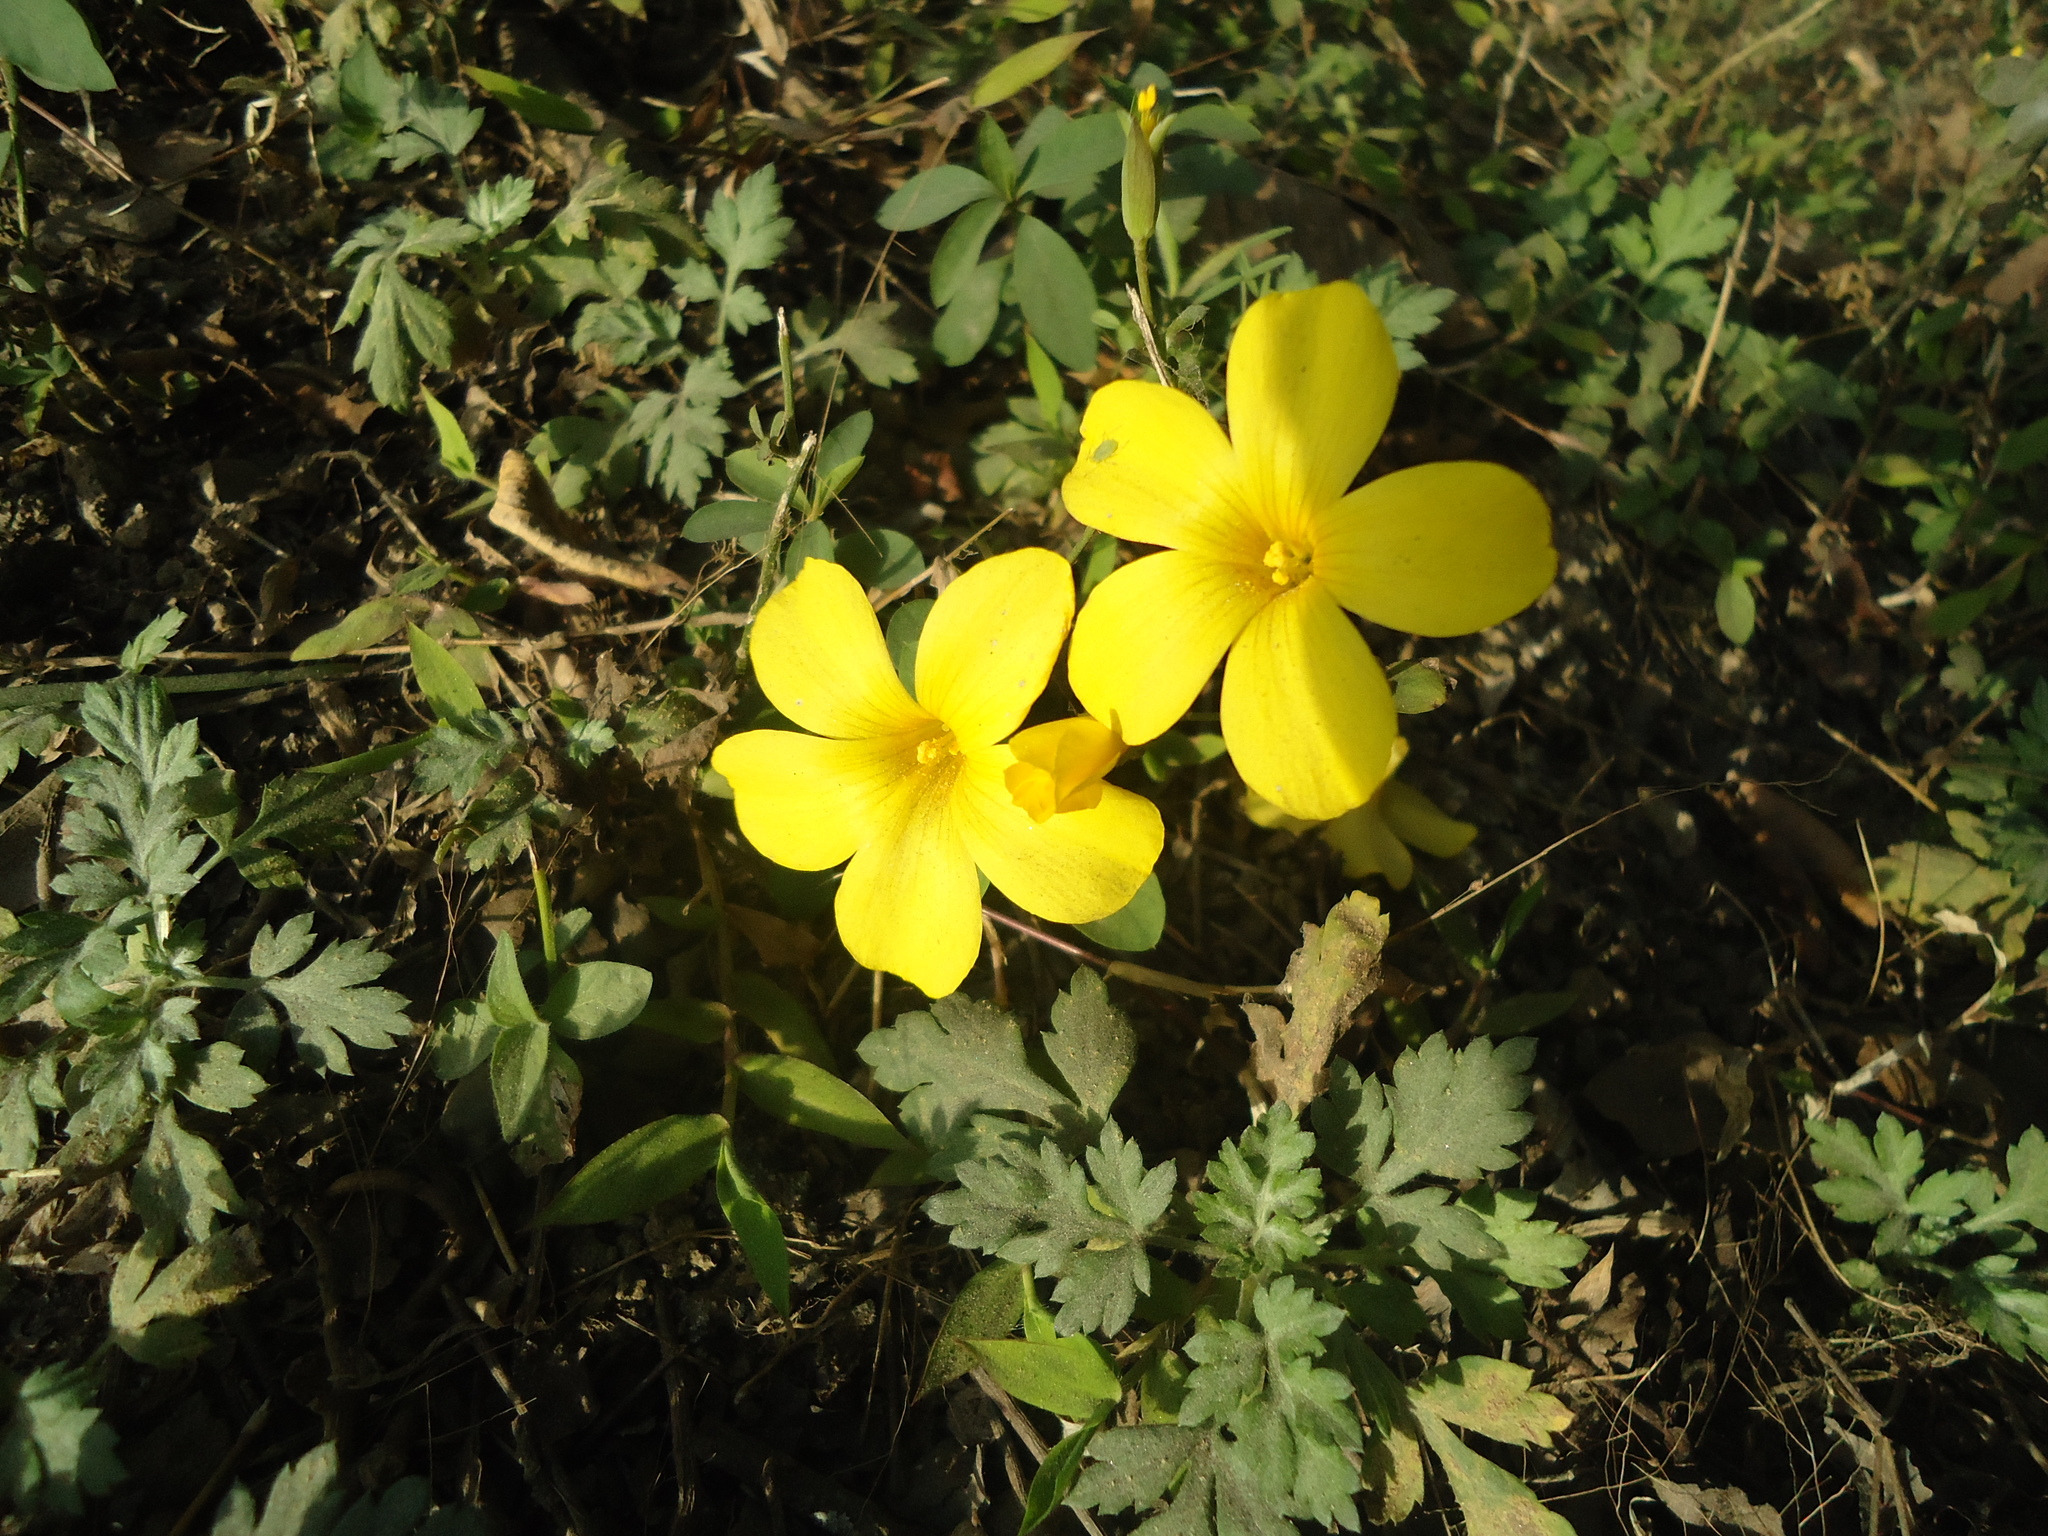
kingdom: Plantae
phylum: Tracheophyta
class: Magnoliopsida
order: Malpighiales
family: Linaceae
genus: Reinwardtia
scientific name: Reinwardtia indica
